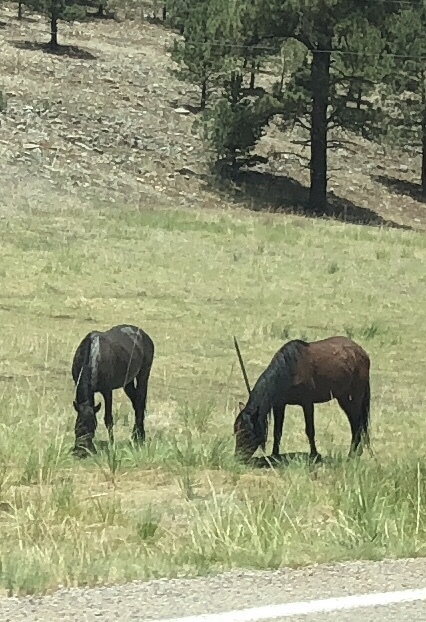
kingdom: Animalia
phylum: Chordata
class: Mammalia
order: Perissodactyla
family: Equidae
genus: Equus
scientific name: Equus caballus
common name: Horse
